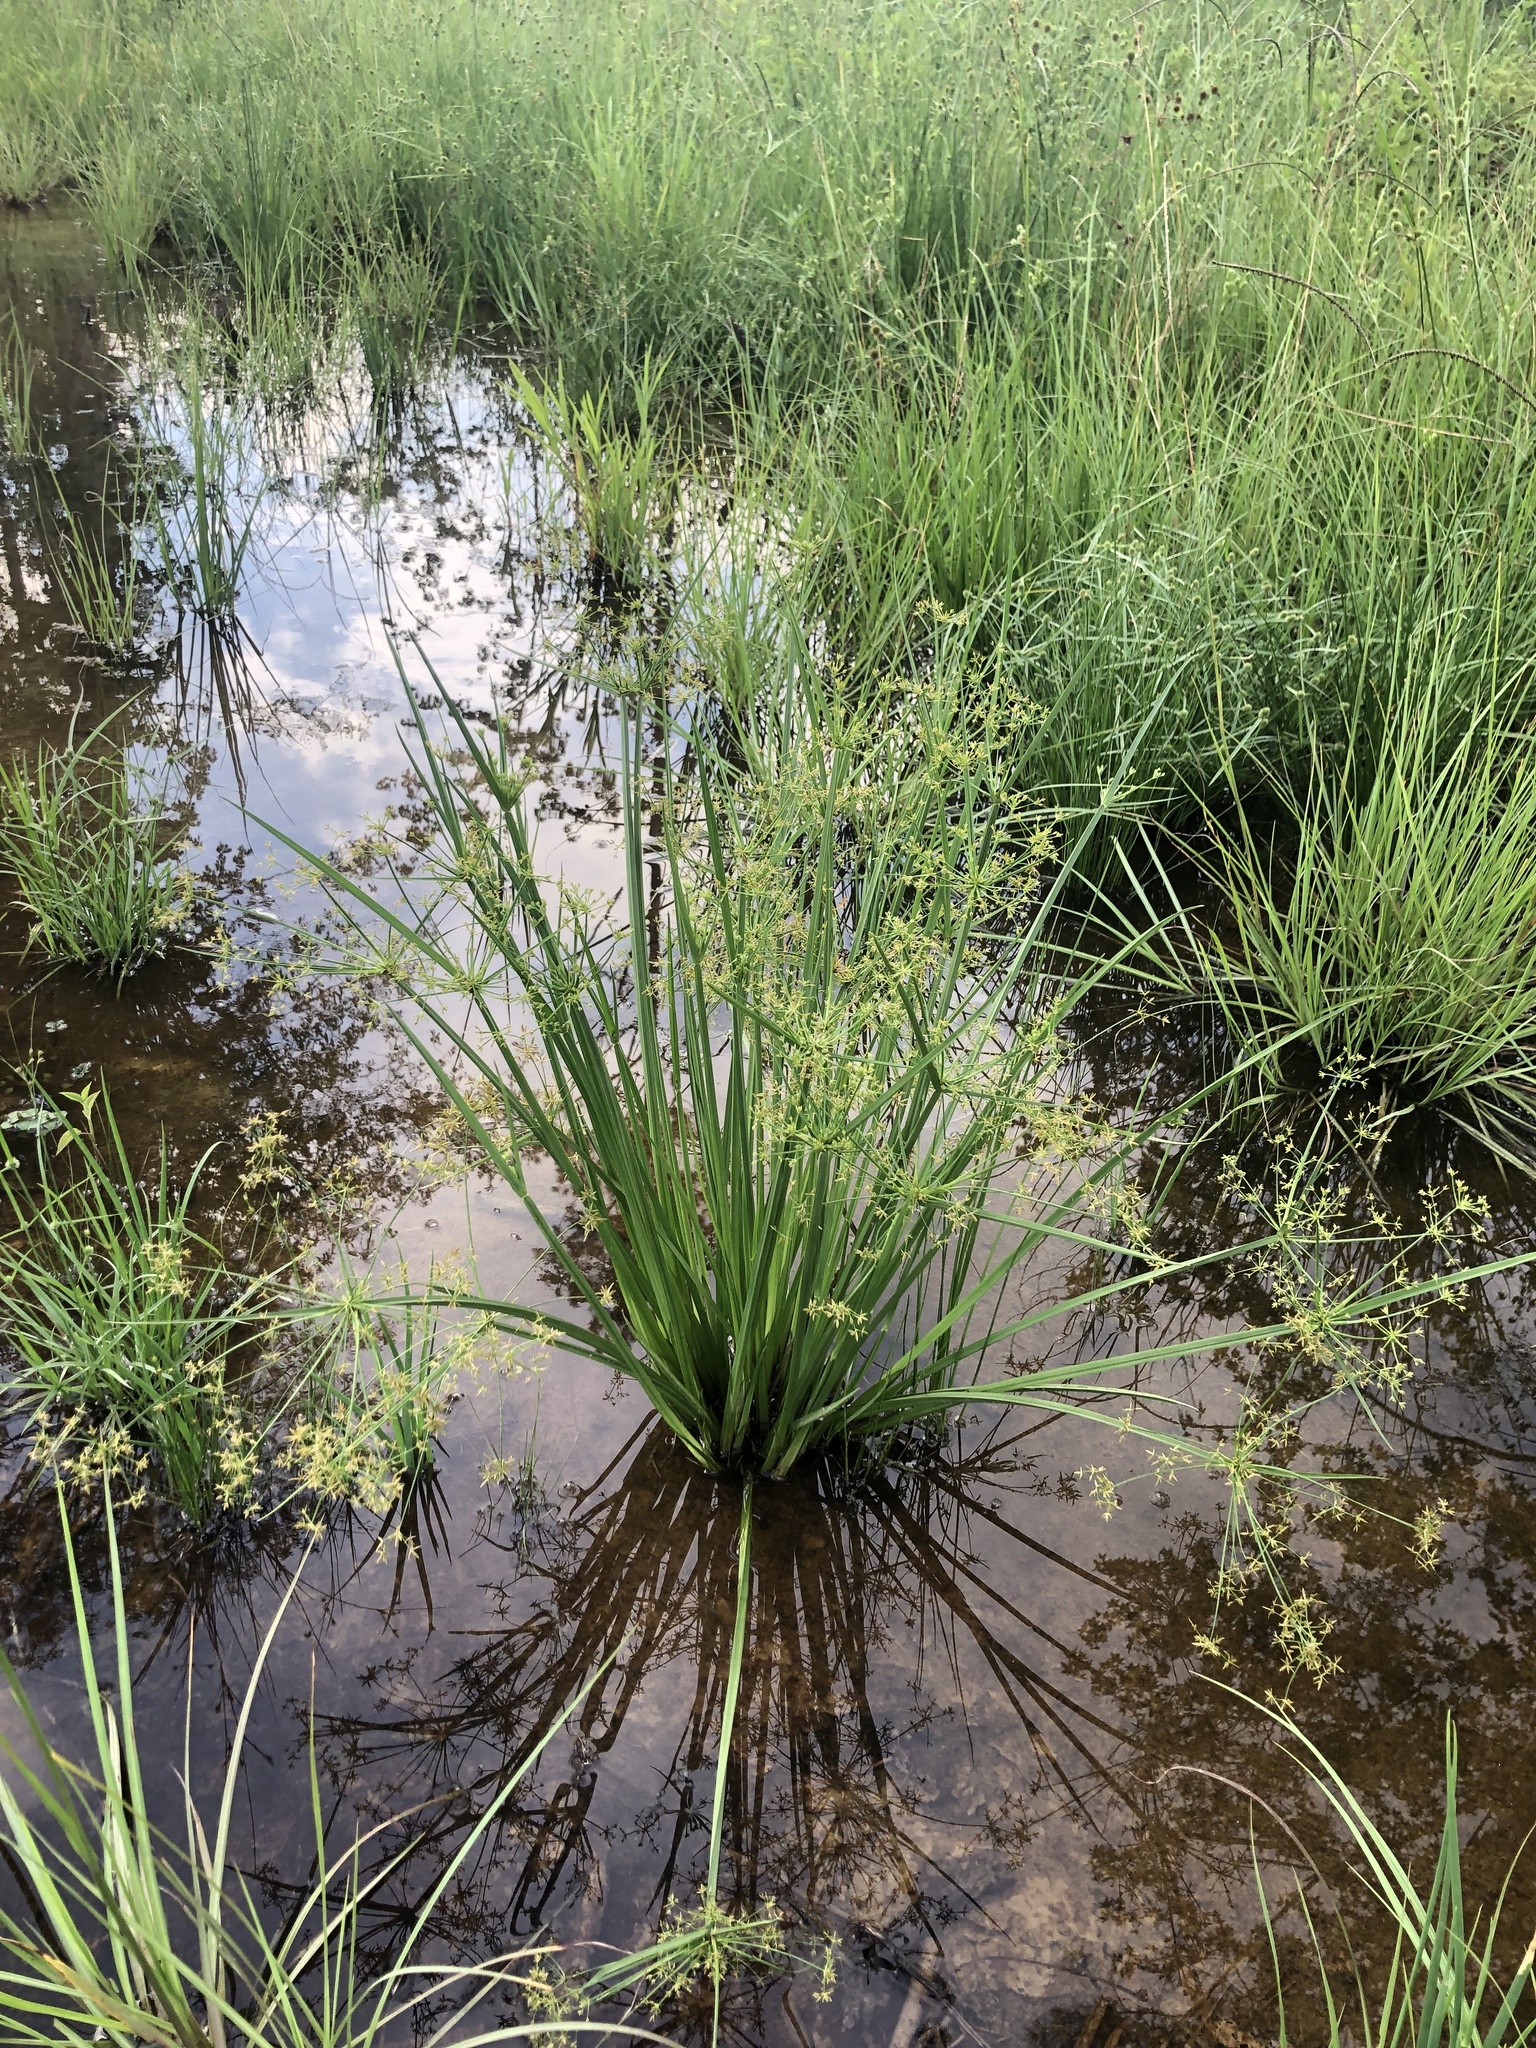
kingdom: Plantae
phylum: Tracheophyta
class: Liliopsida
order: Poales
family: Cyperaceae
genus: Cyperus
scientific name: Cyperus haspan
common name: Haspan flatsedge
